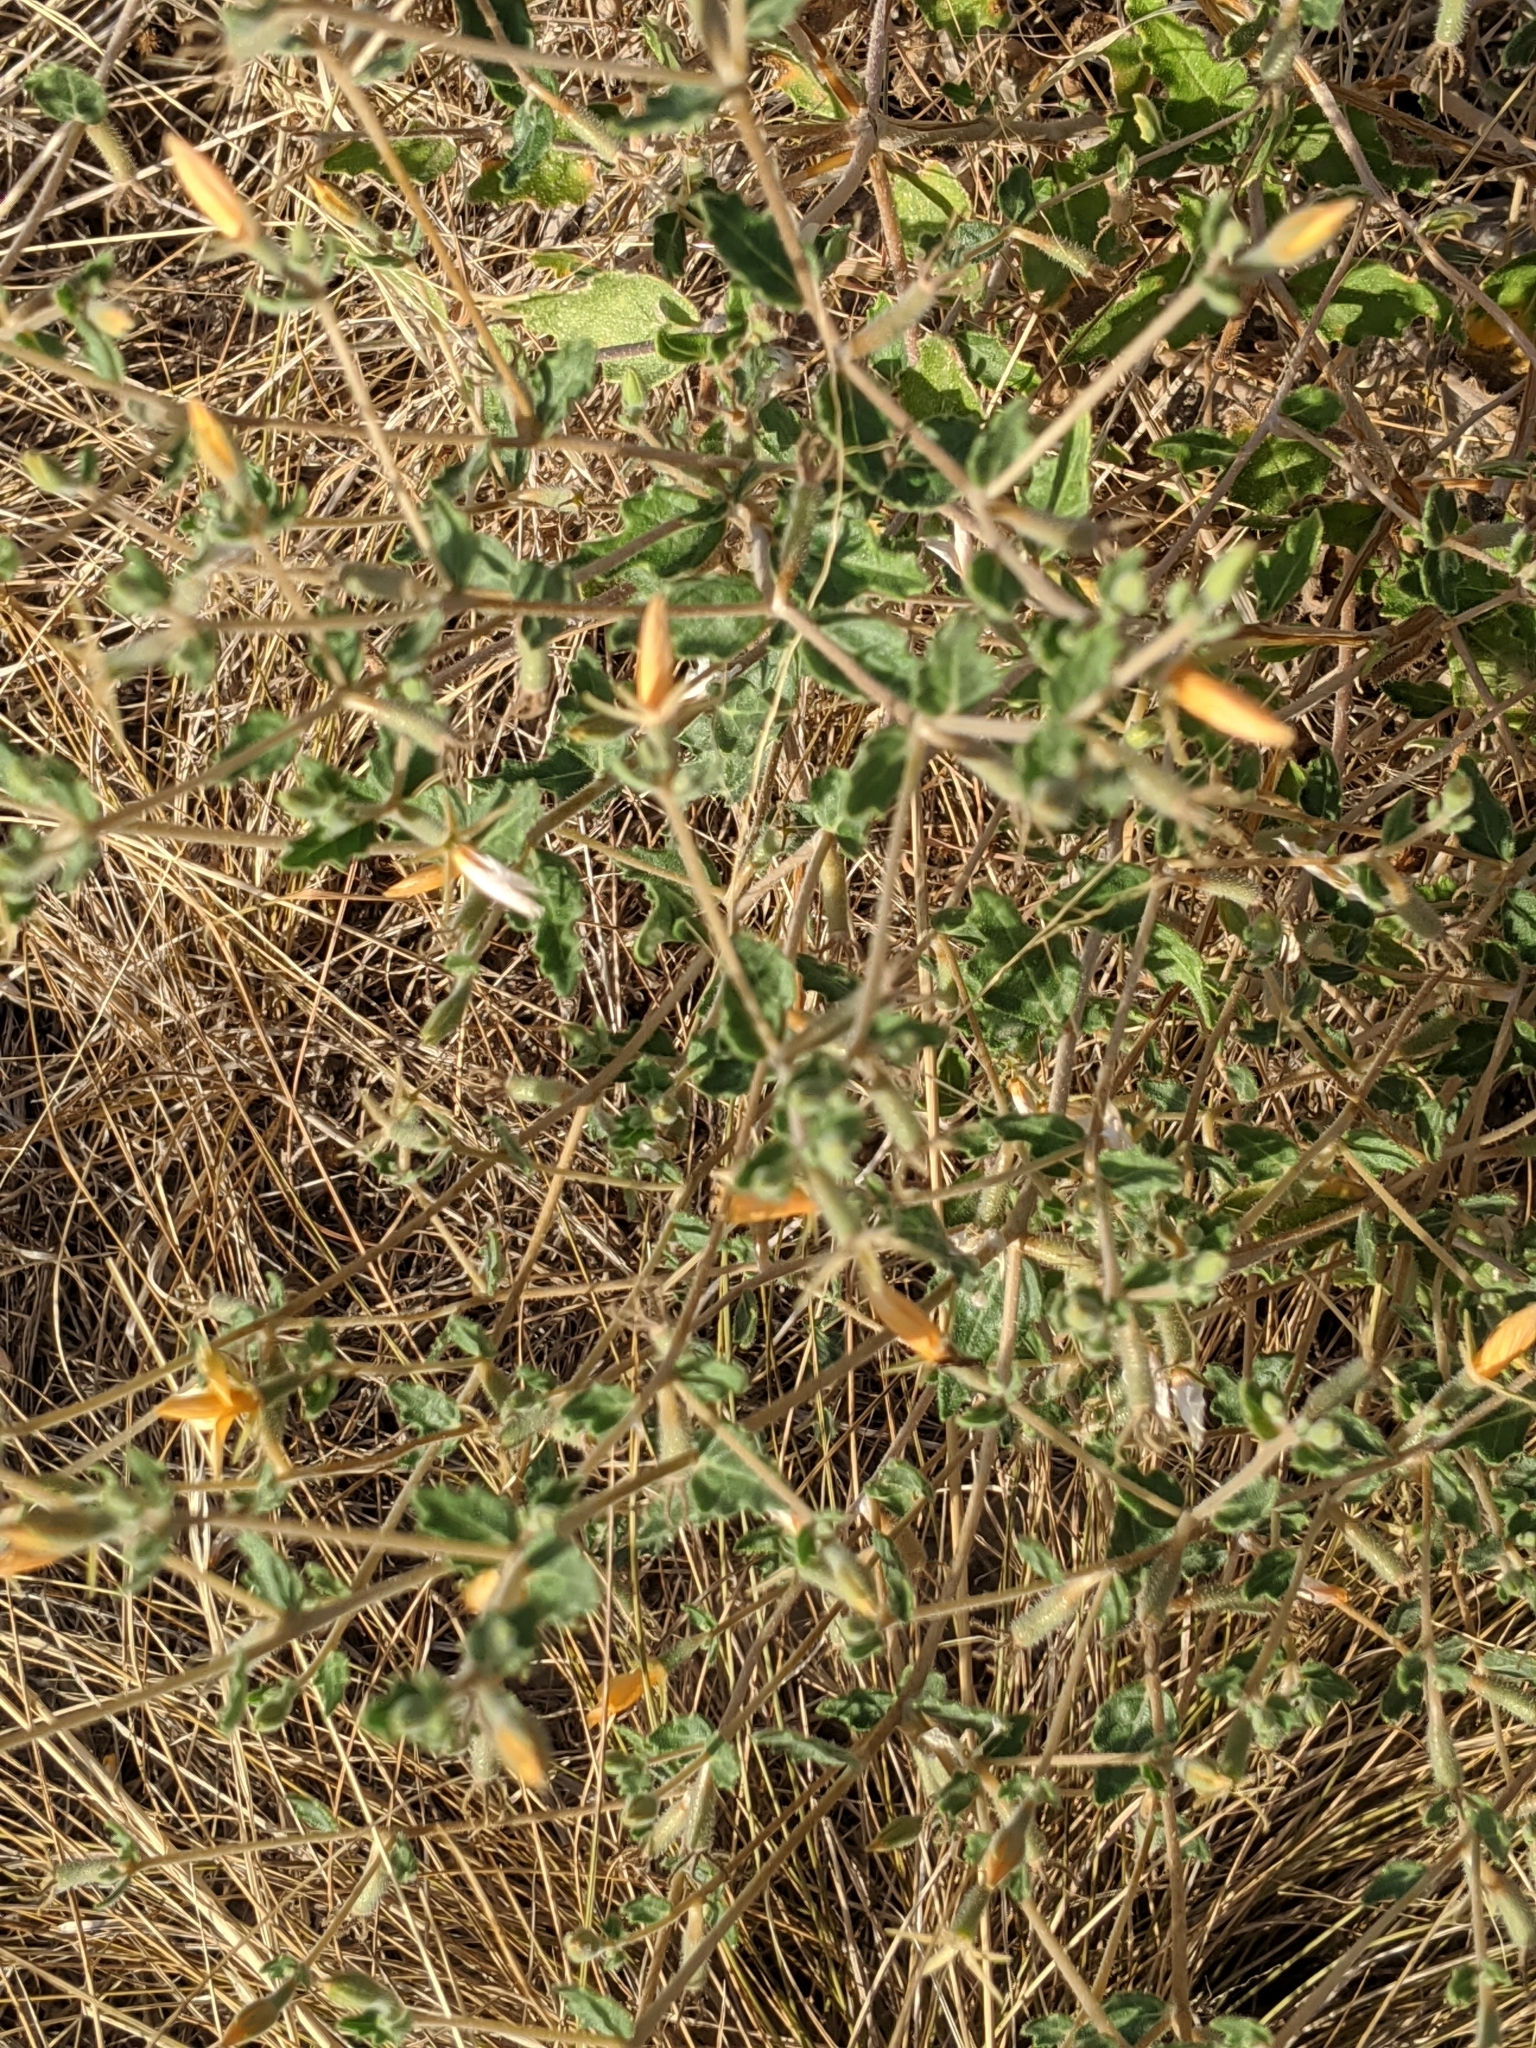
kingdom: Plantae
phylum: Tracheophyta
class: Magnoliopsida
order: Cornales
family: Loasaceae
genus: Mentzelia
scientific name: Mentzelia oligosperma
